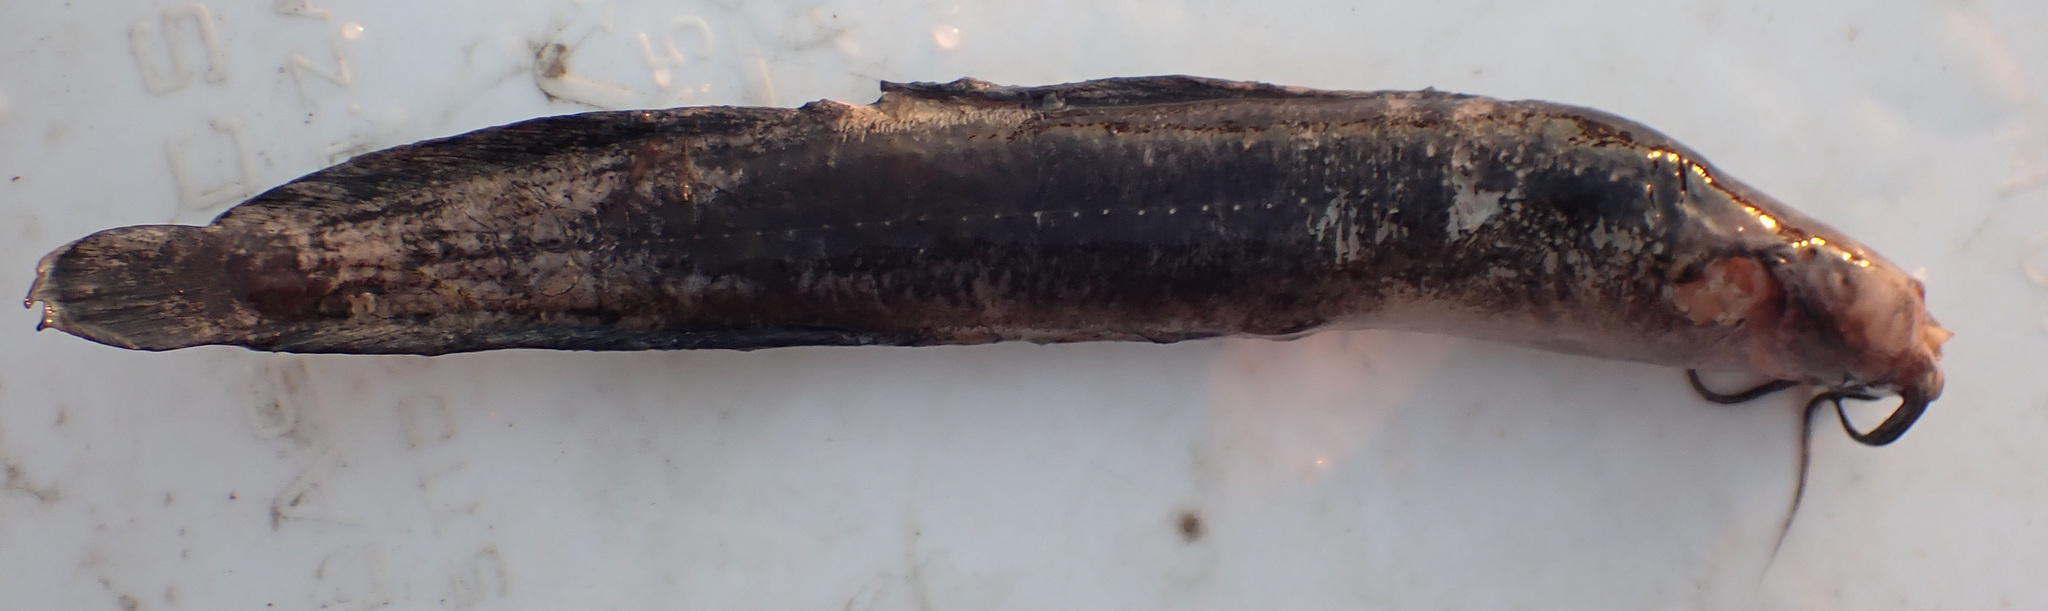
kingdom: Animalia
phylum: Chordata
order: Siluriformes
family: Clariidae
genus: Clarias
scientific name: Clarias theodorae
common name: Snake catfish
